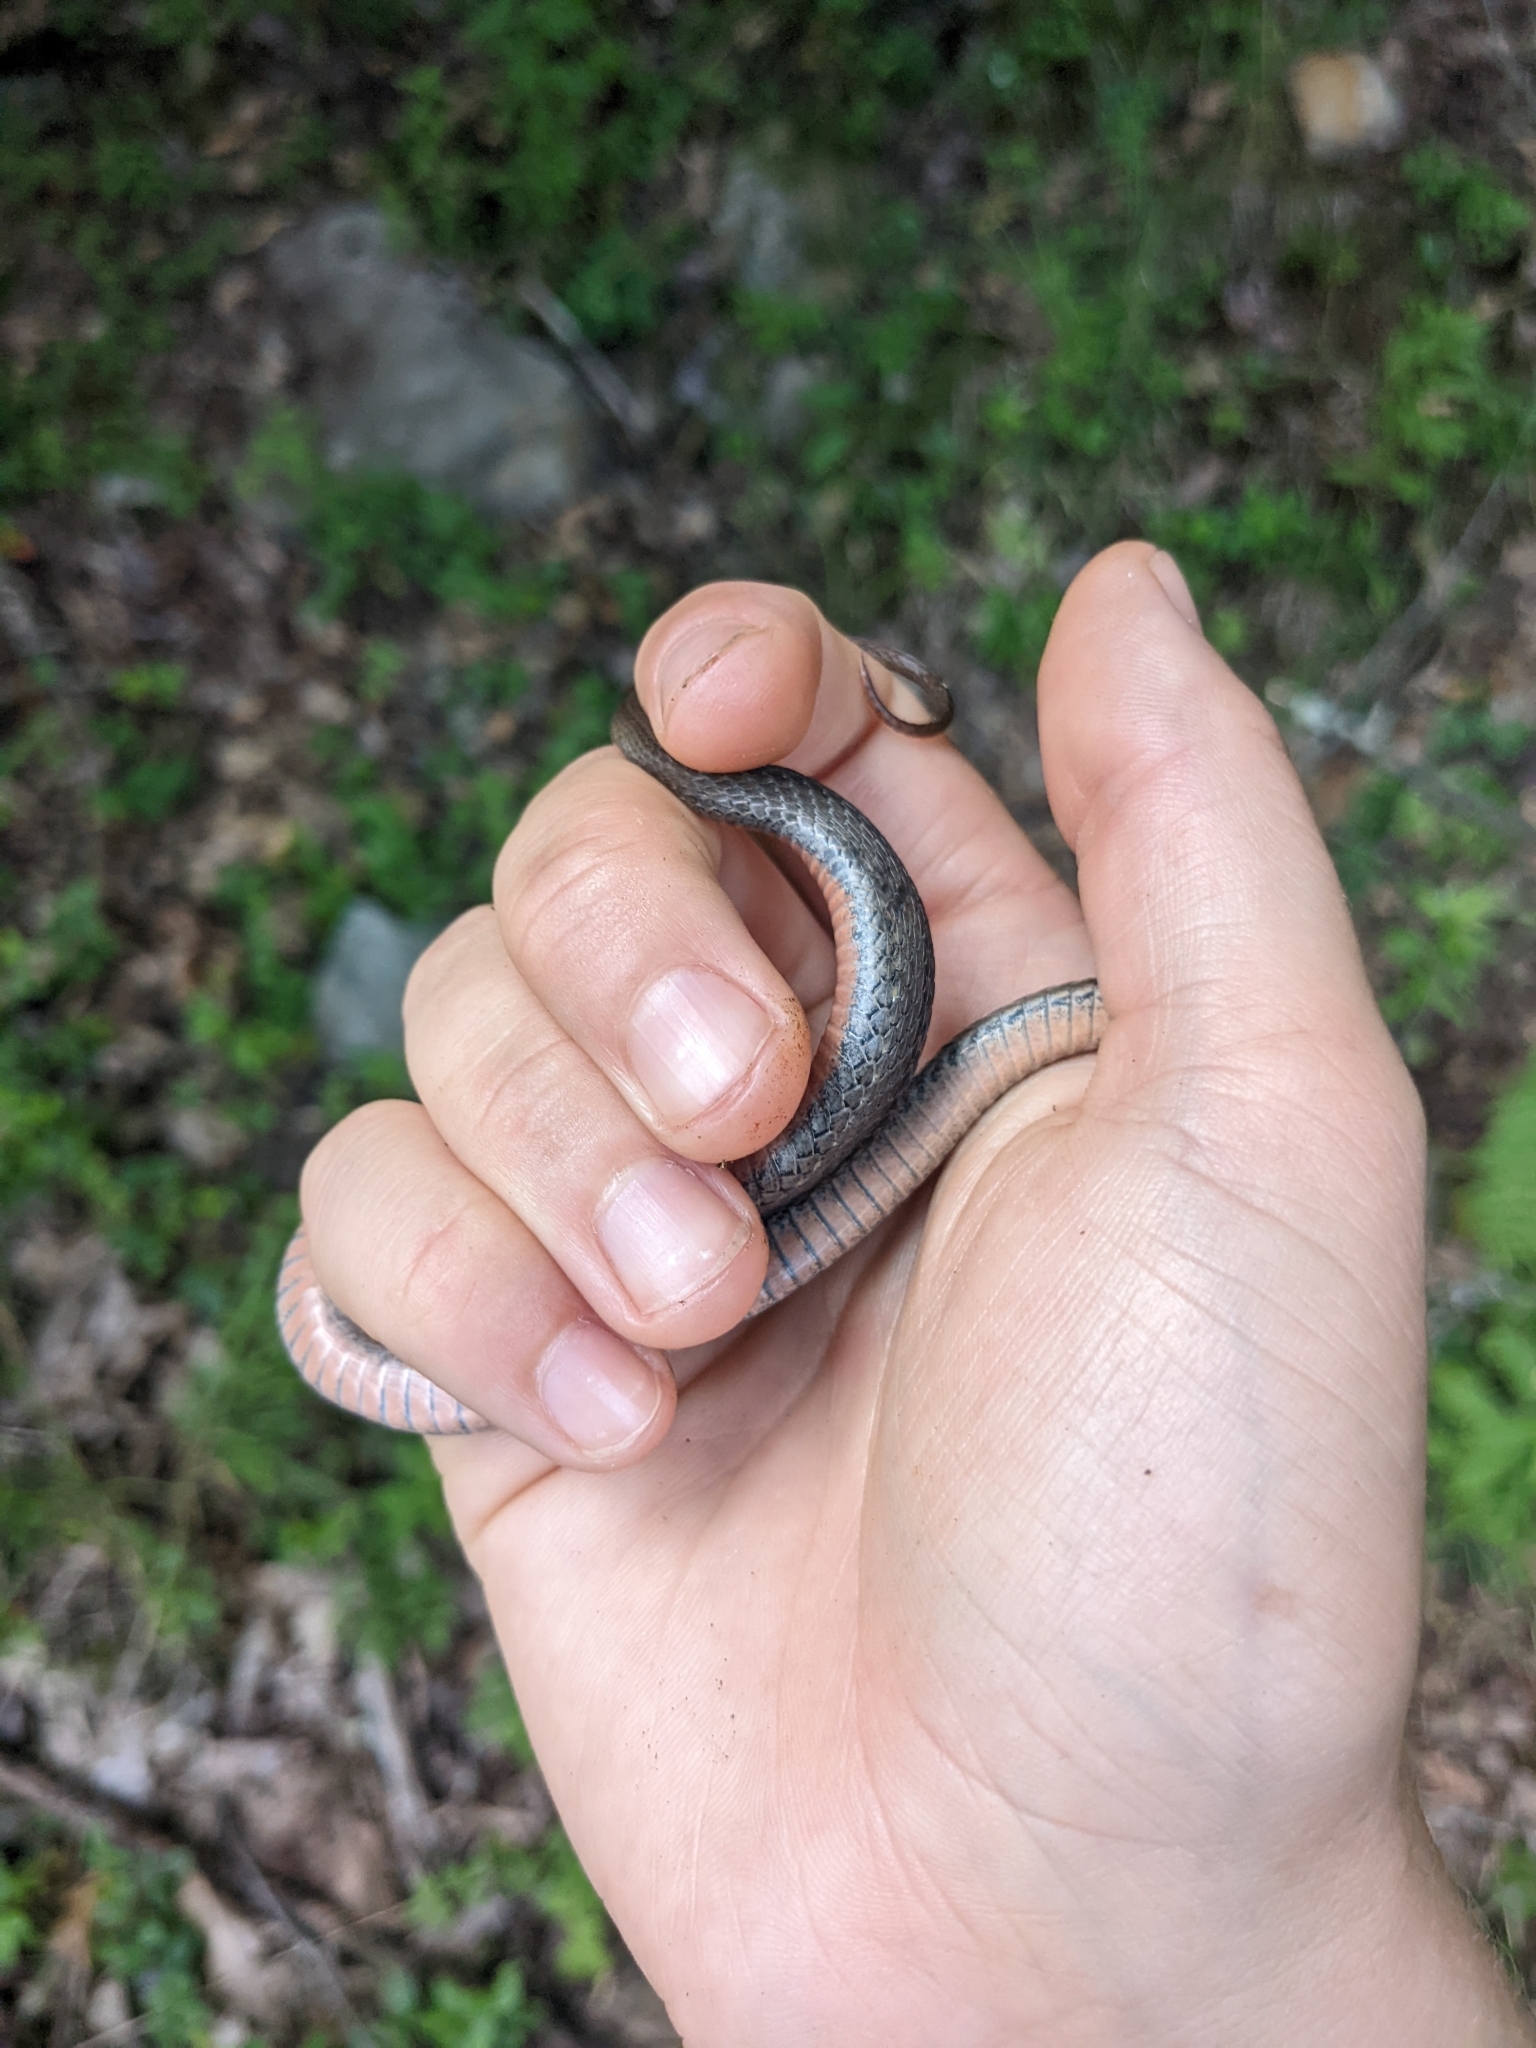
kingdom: Animalia
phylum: Chordata
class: Squamata
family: Colubridae
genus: Storeria
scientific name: Storeria occipitomaculata
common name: Redbelly snake
